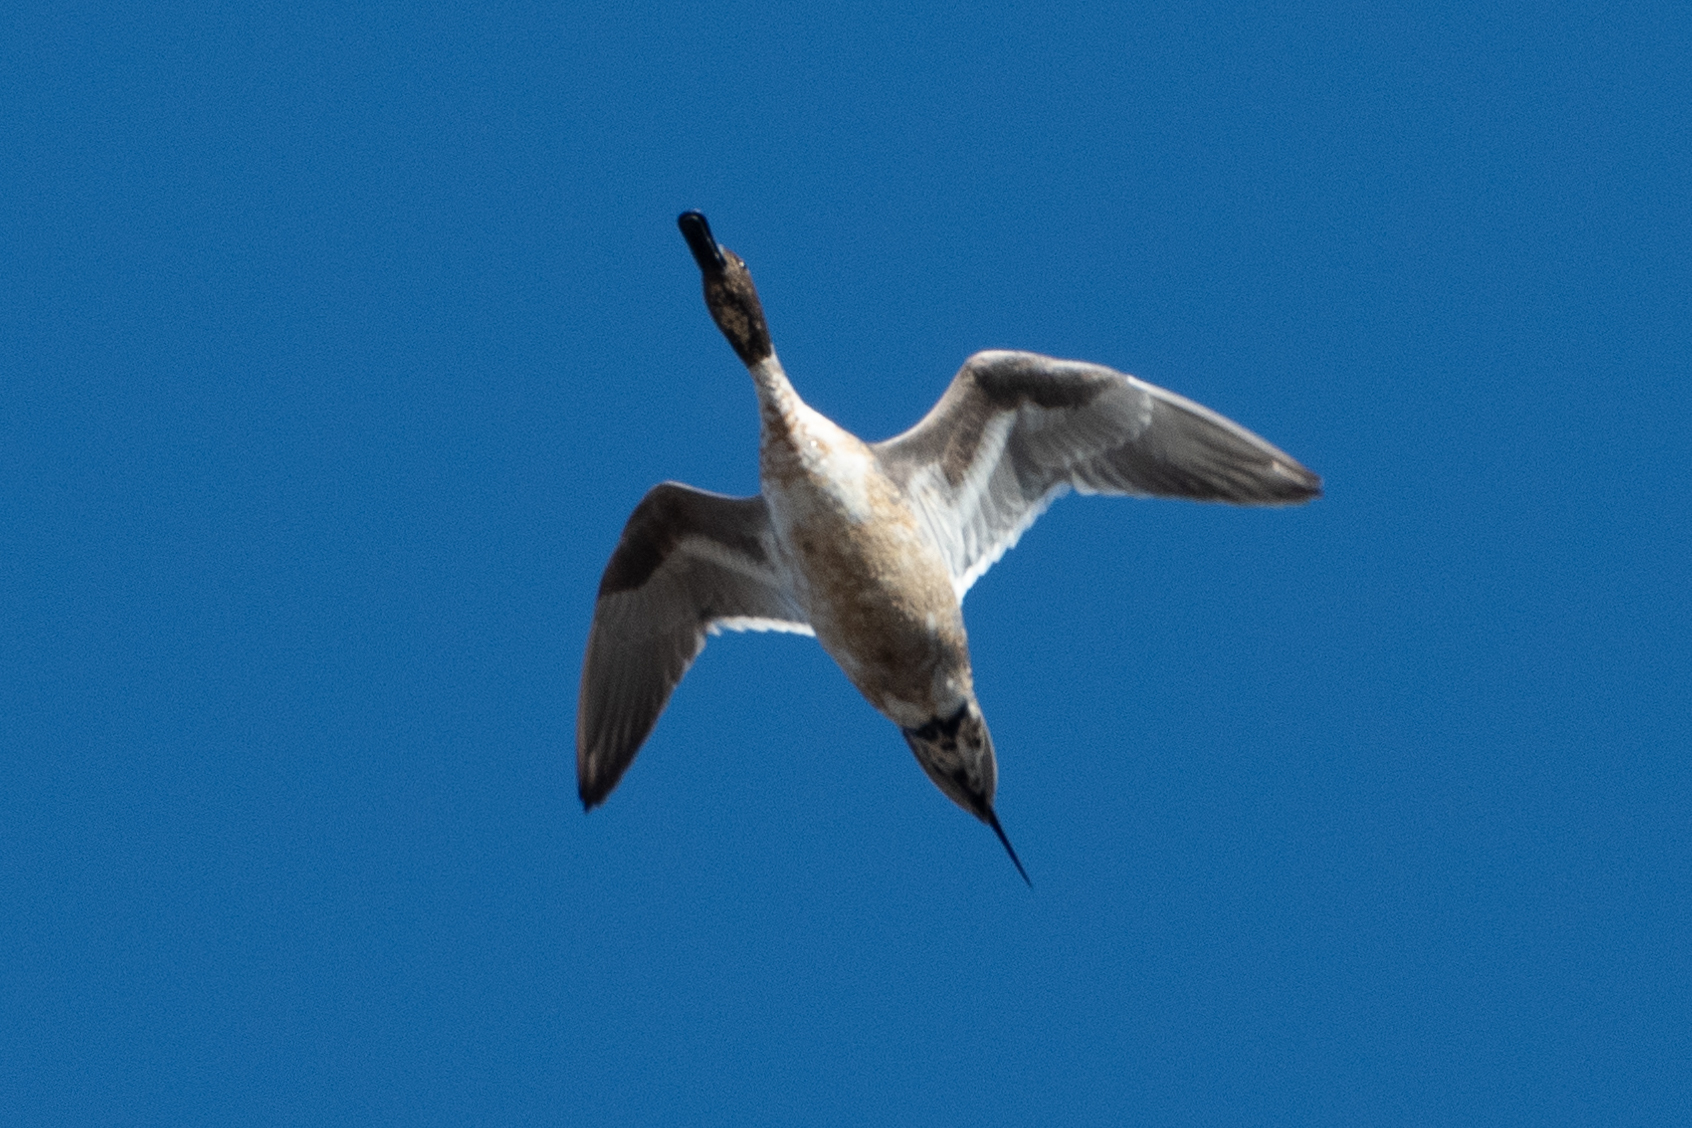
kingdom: Animalia
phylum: Chordata
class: Aves
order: Anseriformes
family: Anatidae
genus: Anas
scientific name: Anas acuta
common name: Northern pintail
